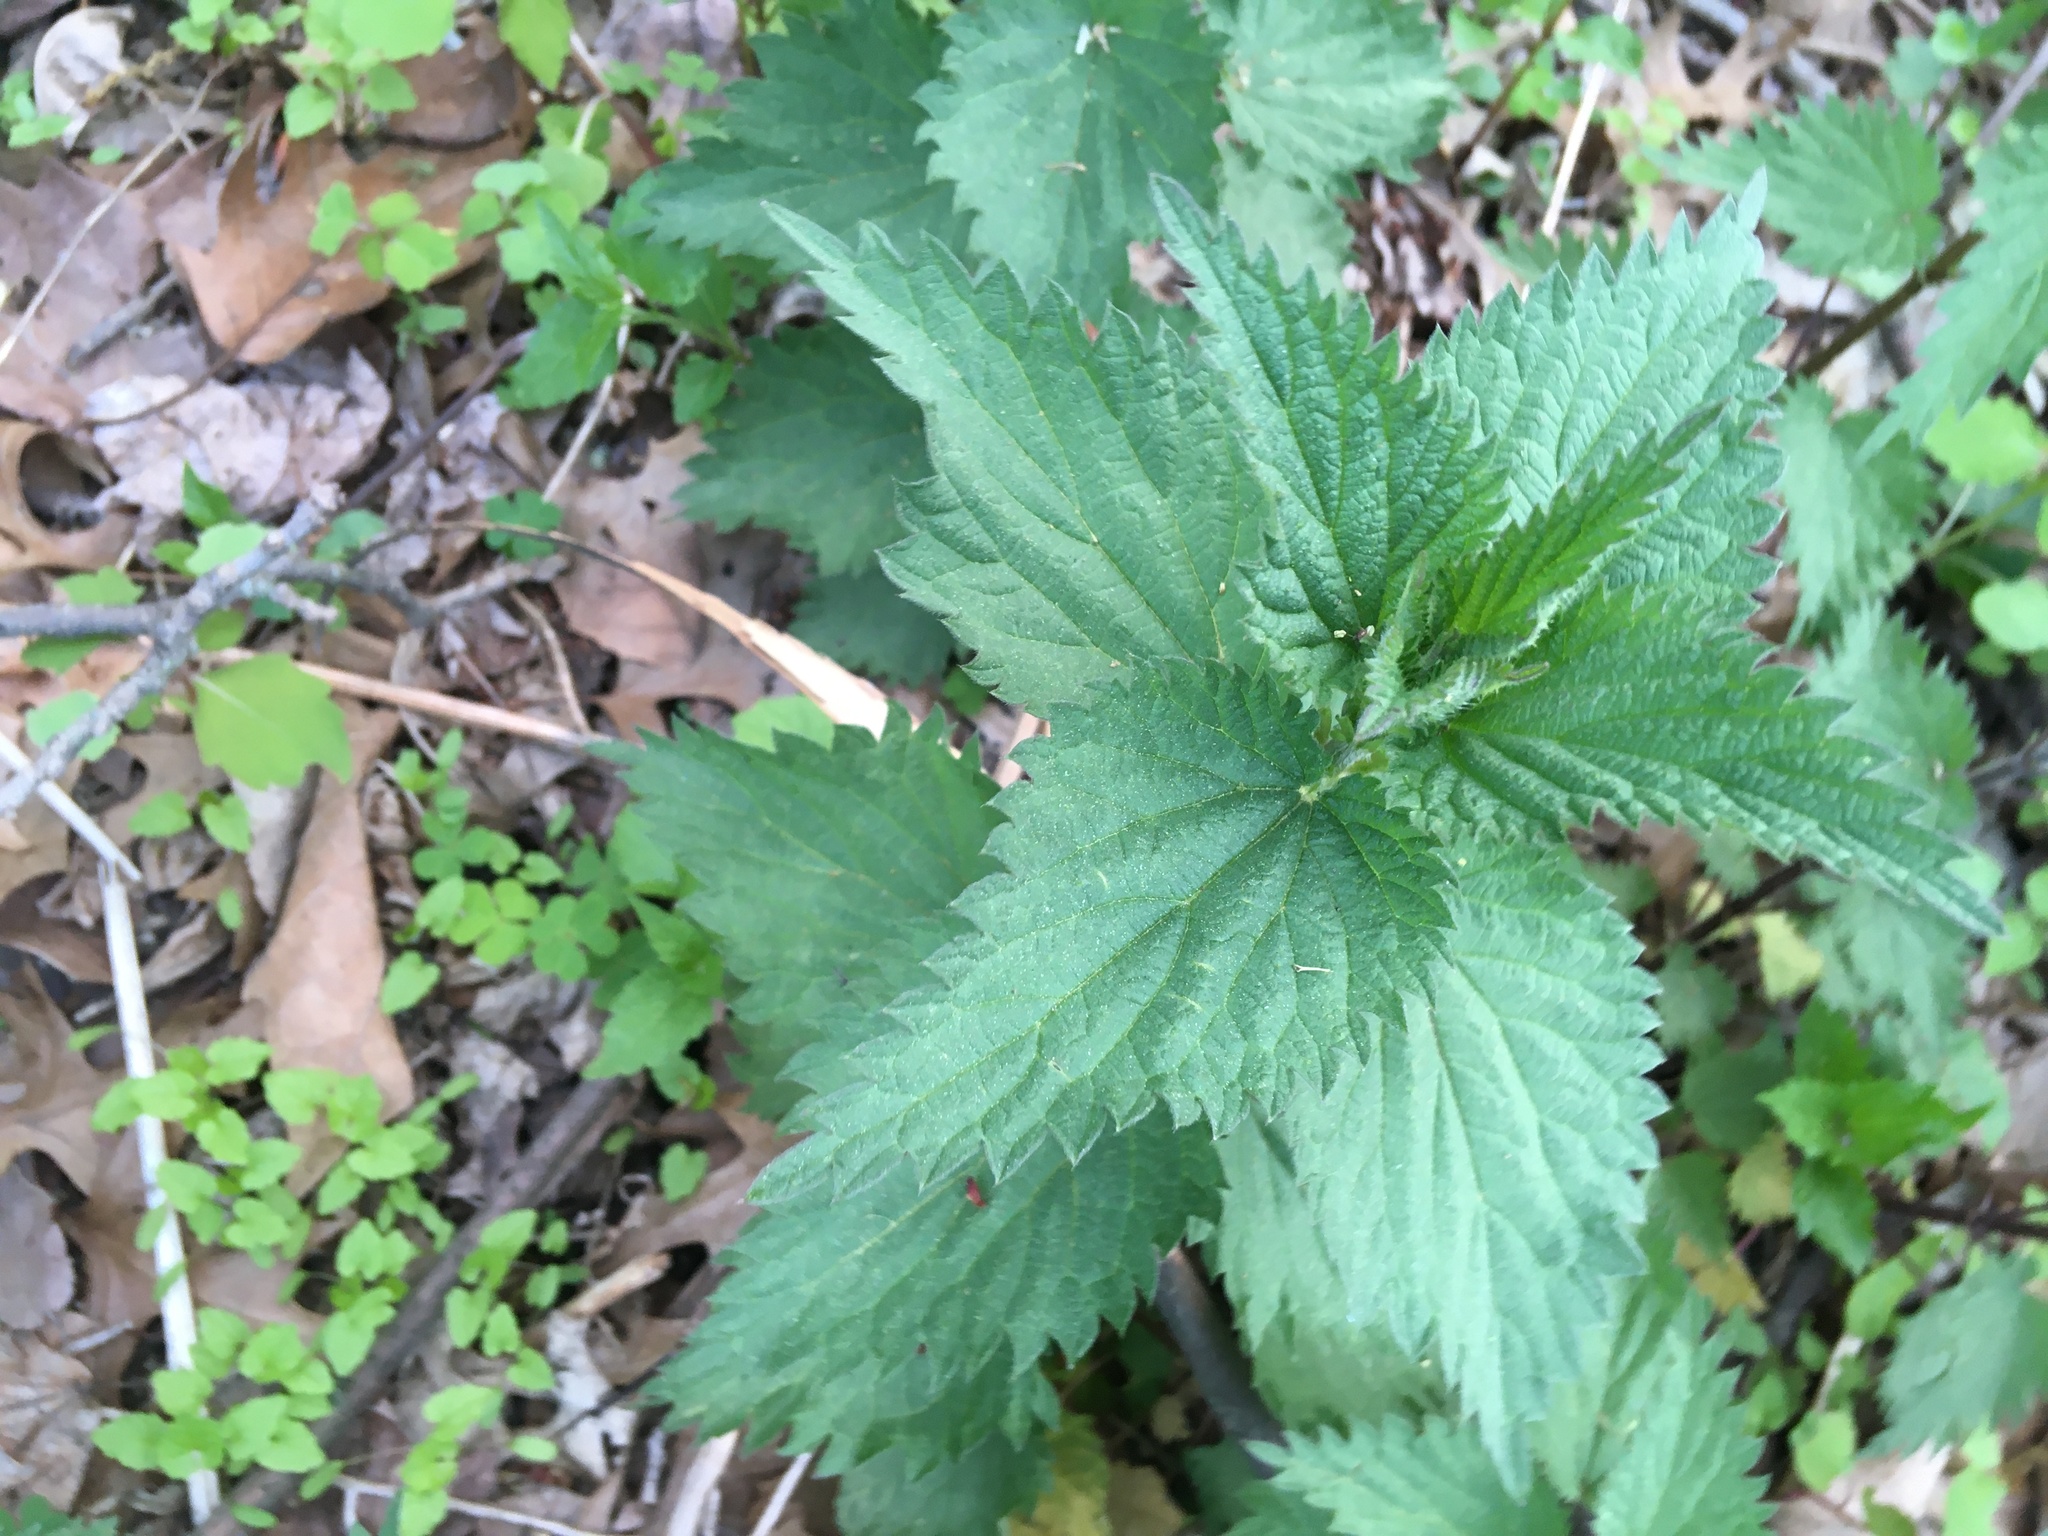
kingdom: Plantae
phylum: Tracheophyta
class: Magnoliopsida
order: Rosales
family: Urticaceae
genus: Urtica
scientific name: Urtica dioica
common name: Common nettle
